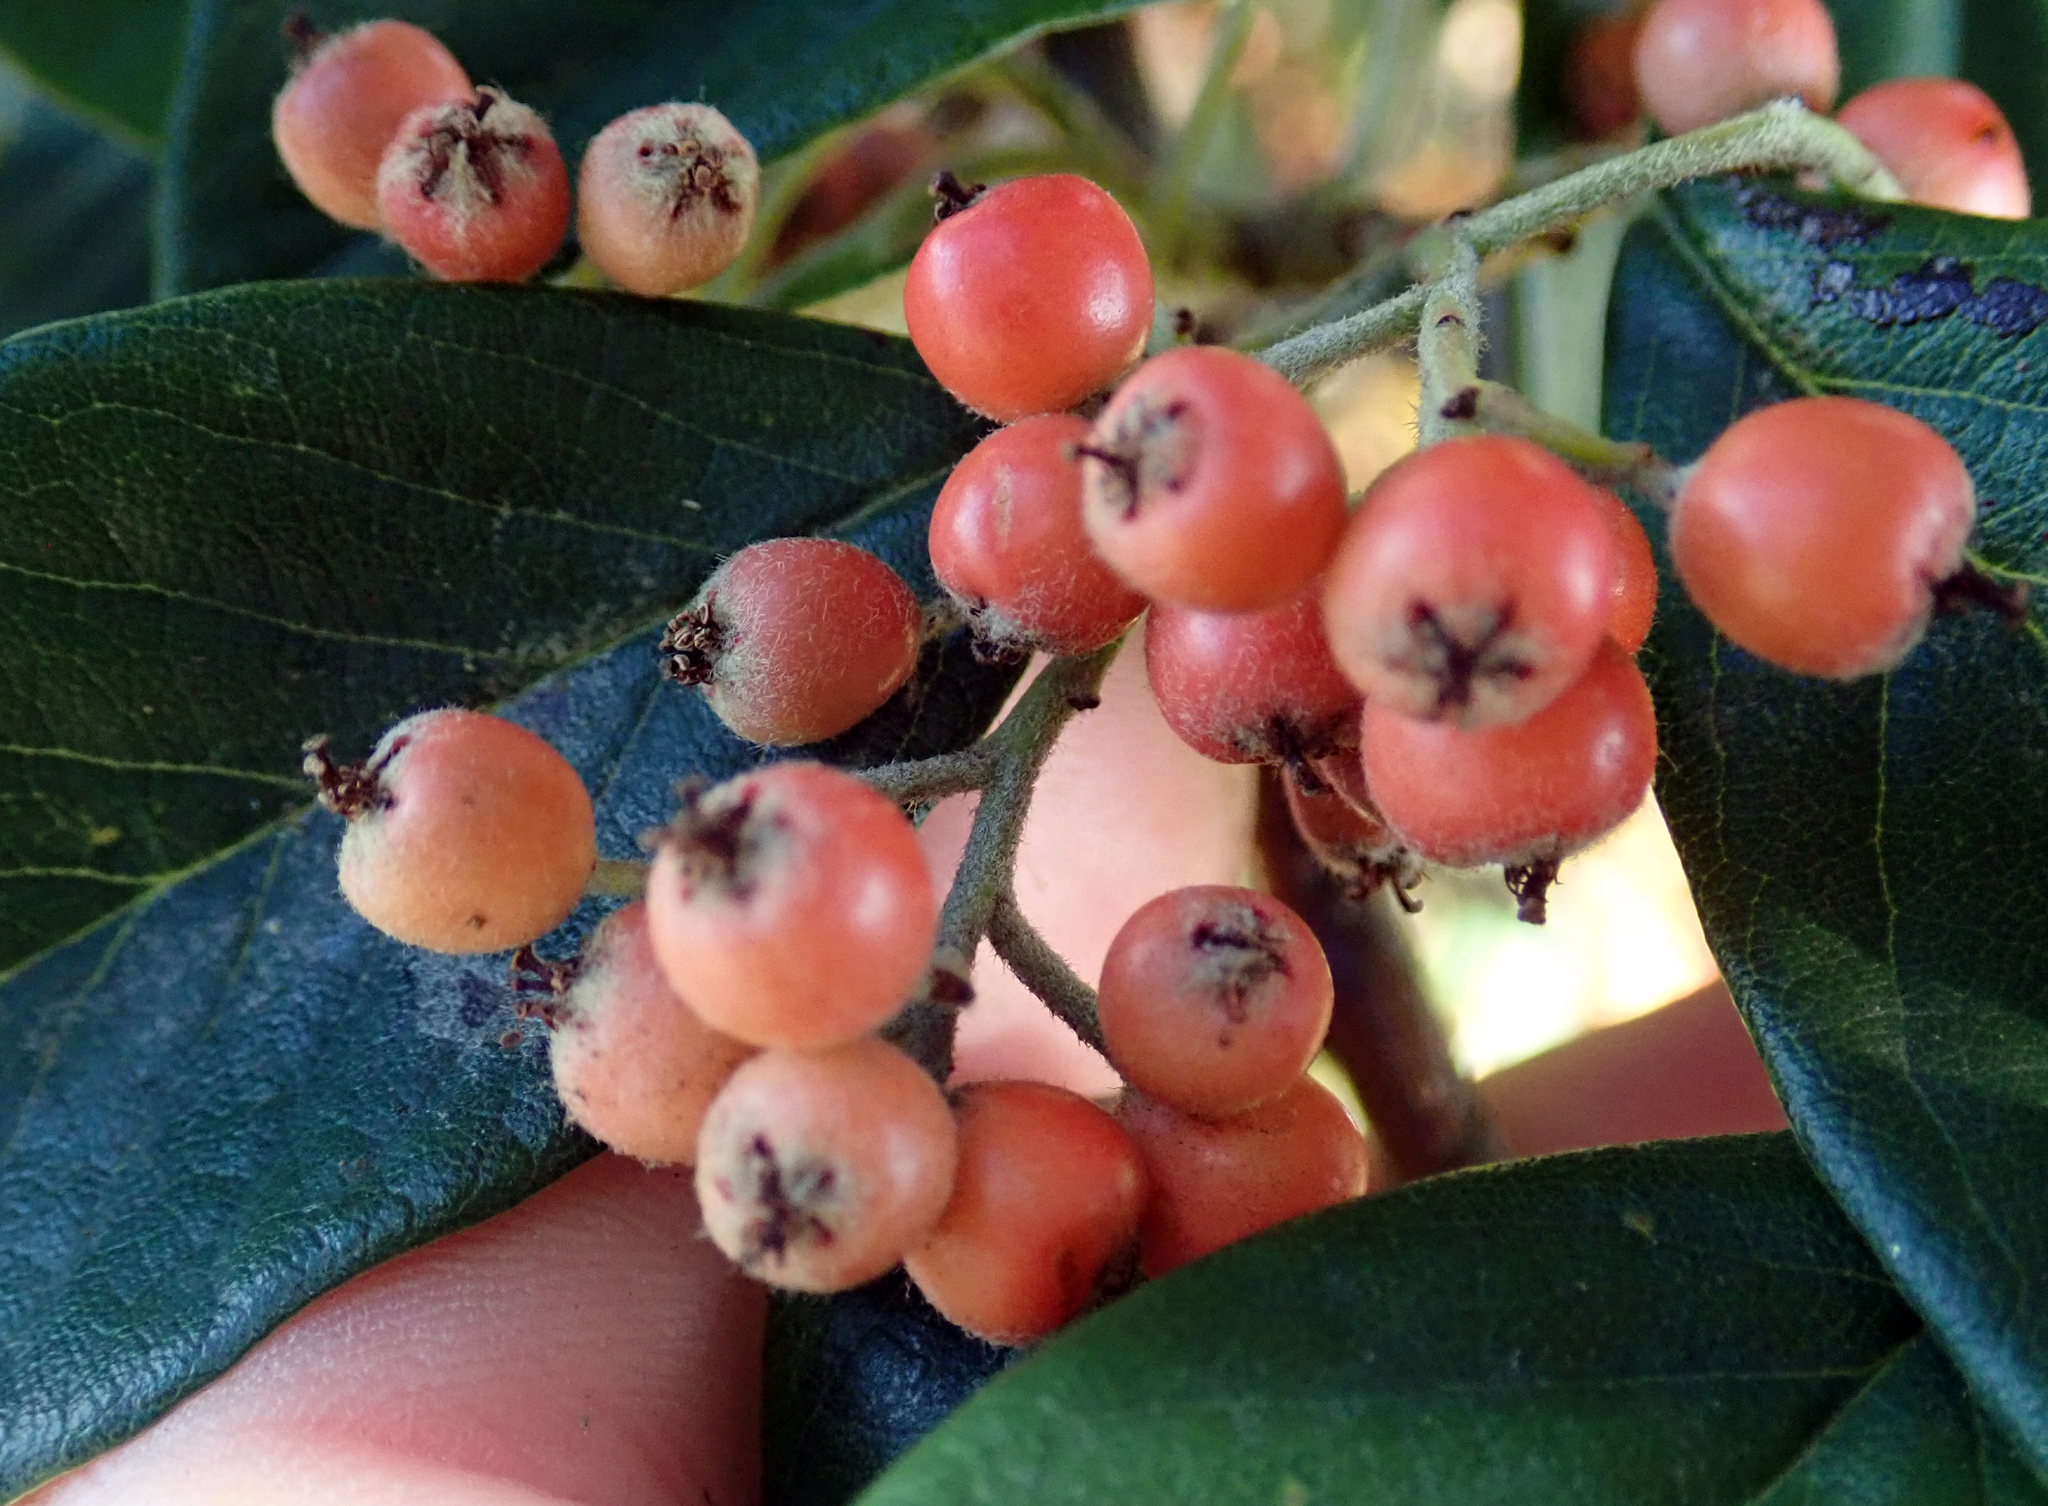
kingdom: Plantae
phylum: Tracheophyta
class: Magnoliopsida
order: Rosales
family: Rosaceae
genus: Cotoneaster
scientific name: Cotoneaster coriaceus
